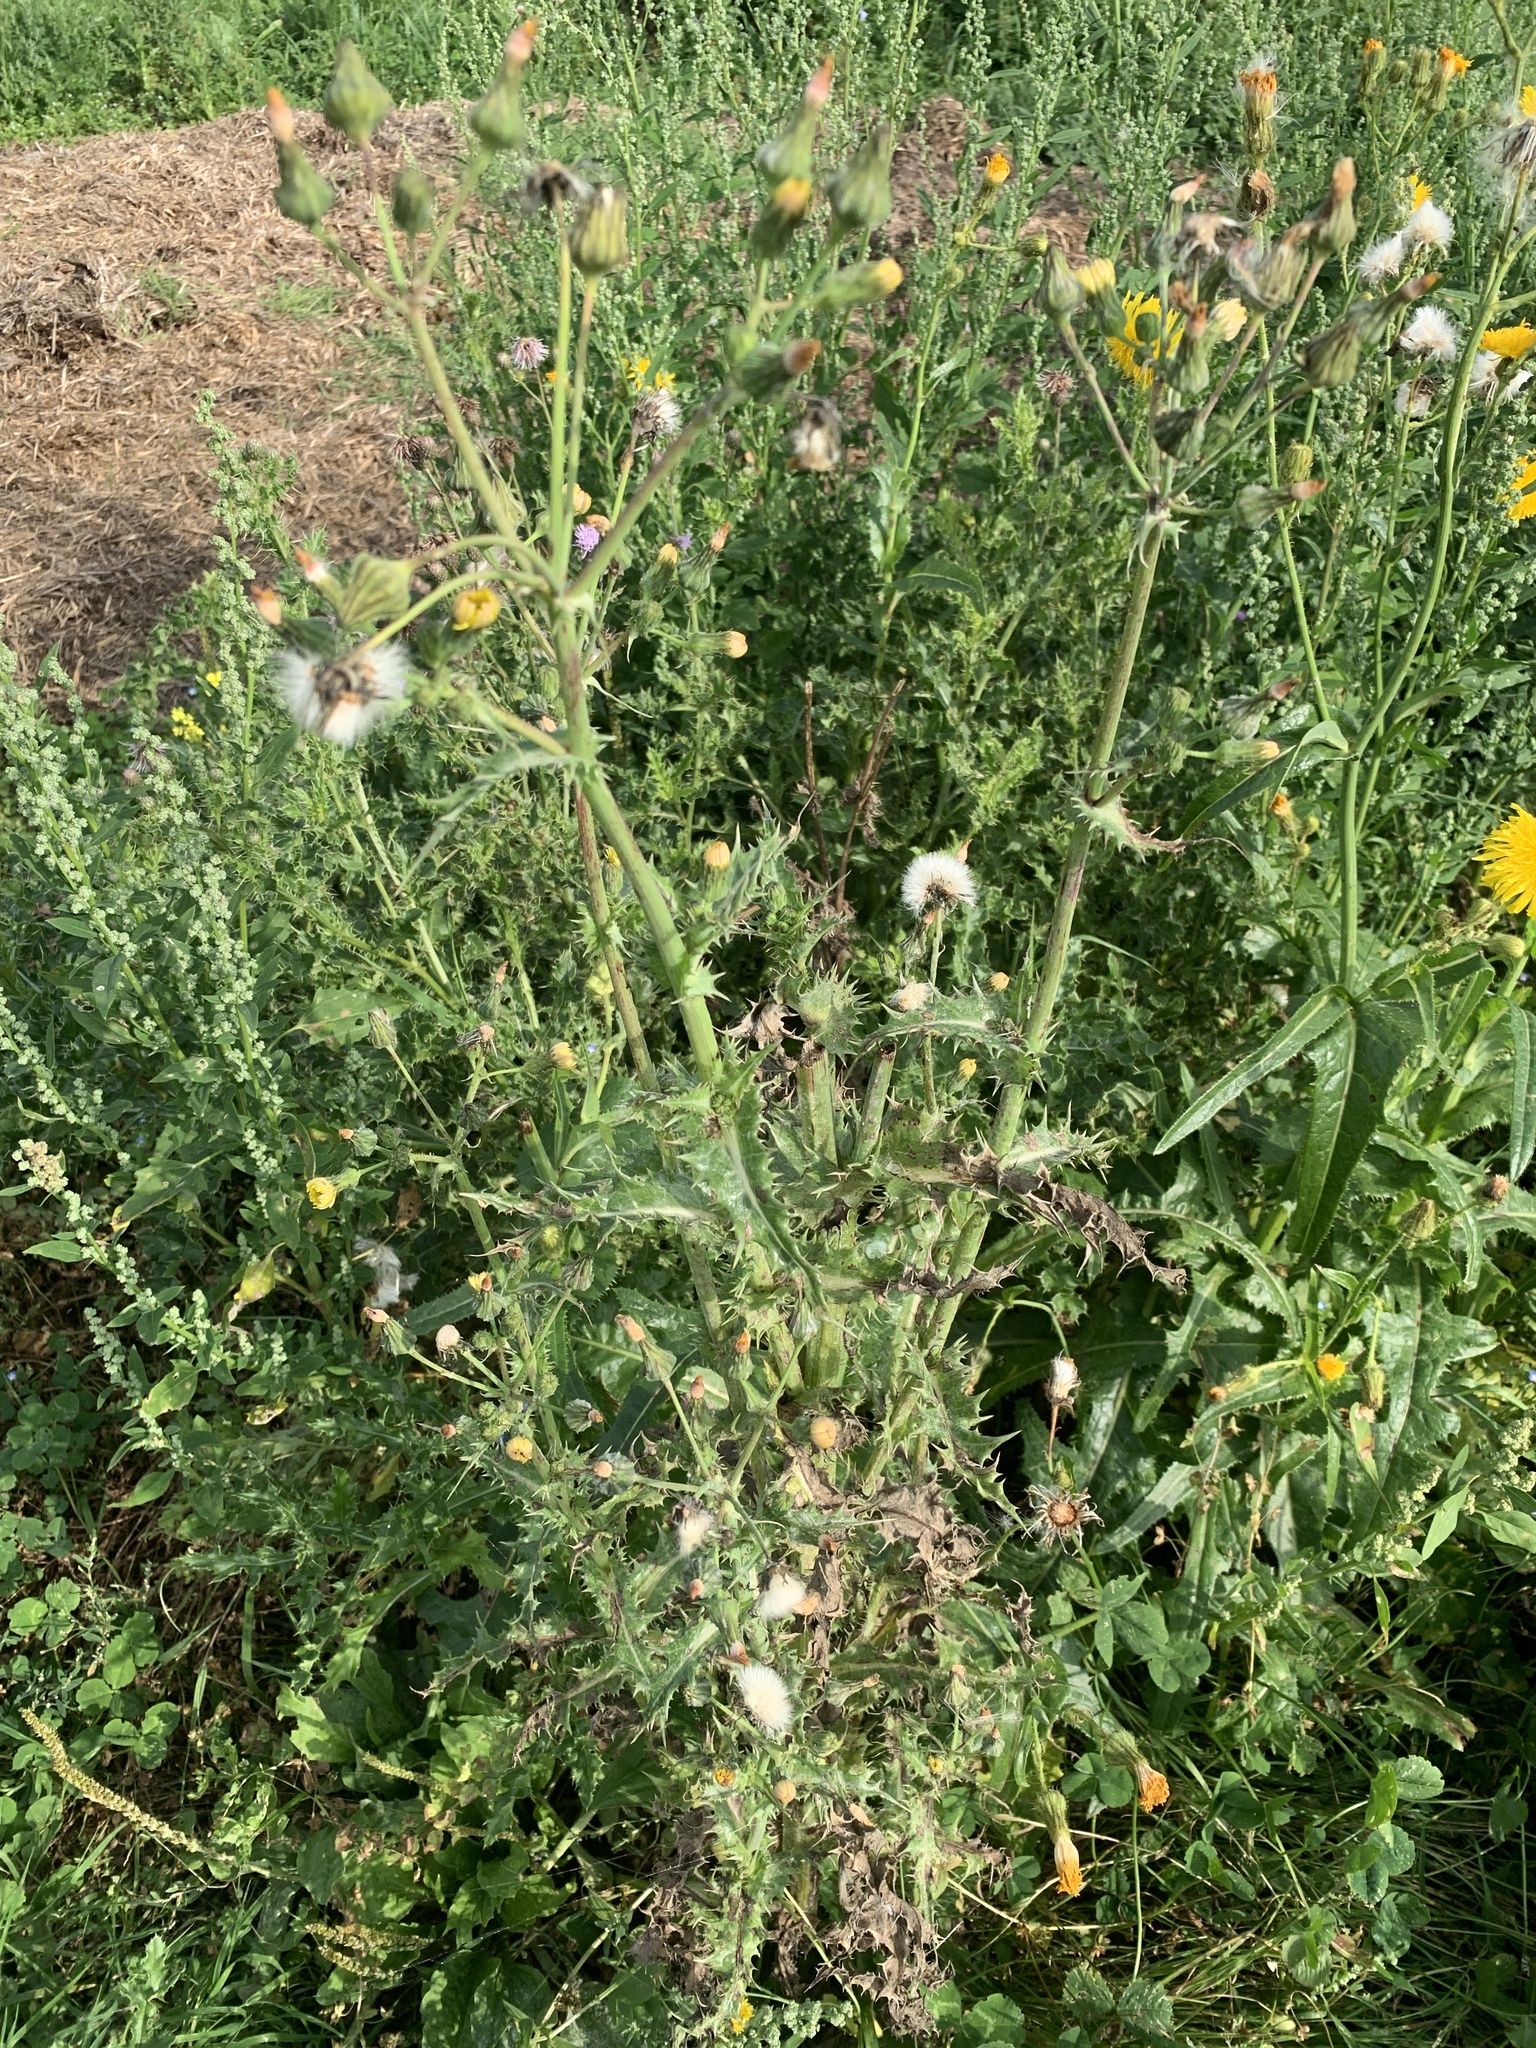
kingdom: Plantae
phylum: Tracheophyta
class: Magnoliopsida
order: Asterales
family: Asteraceae
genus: Sonchus
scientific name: Sonchus asper
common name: Prickly sow-thistle
